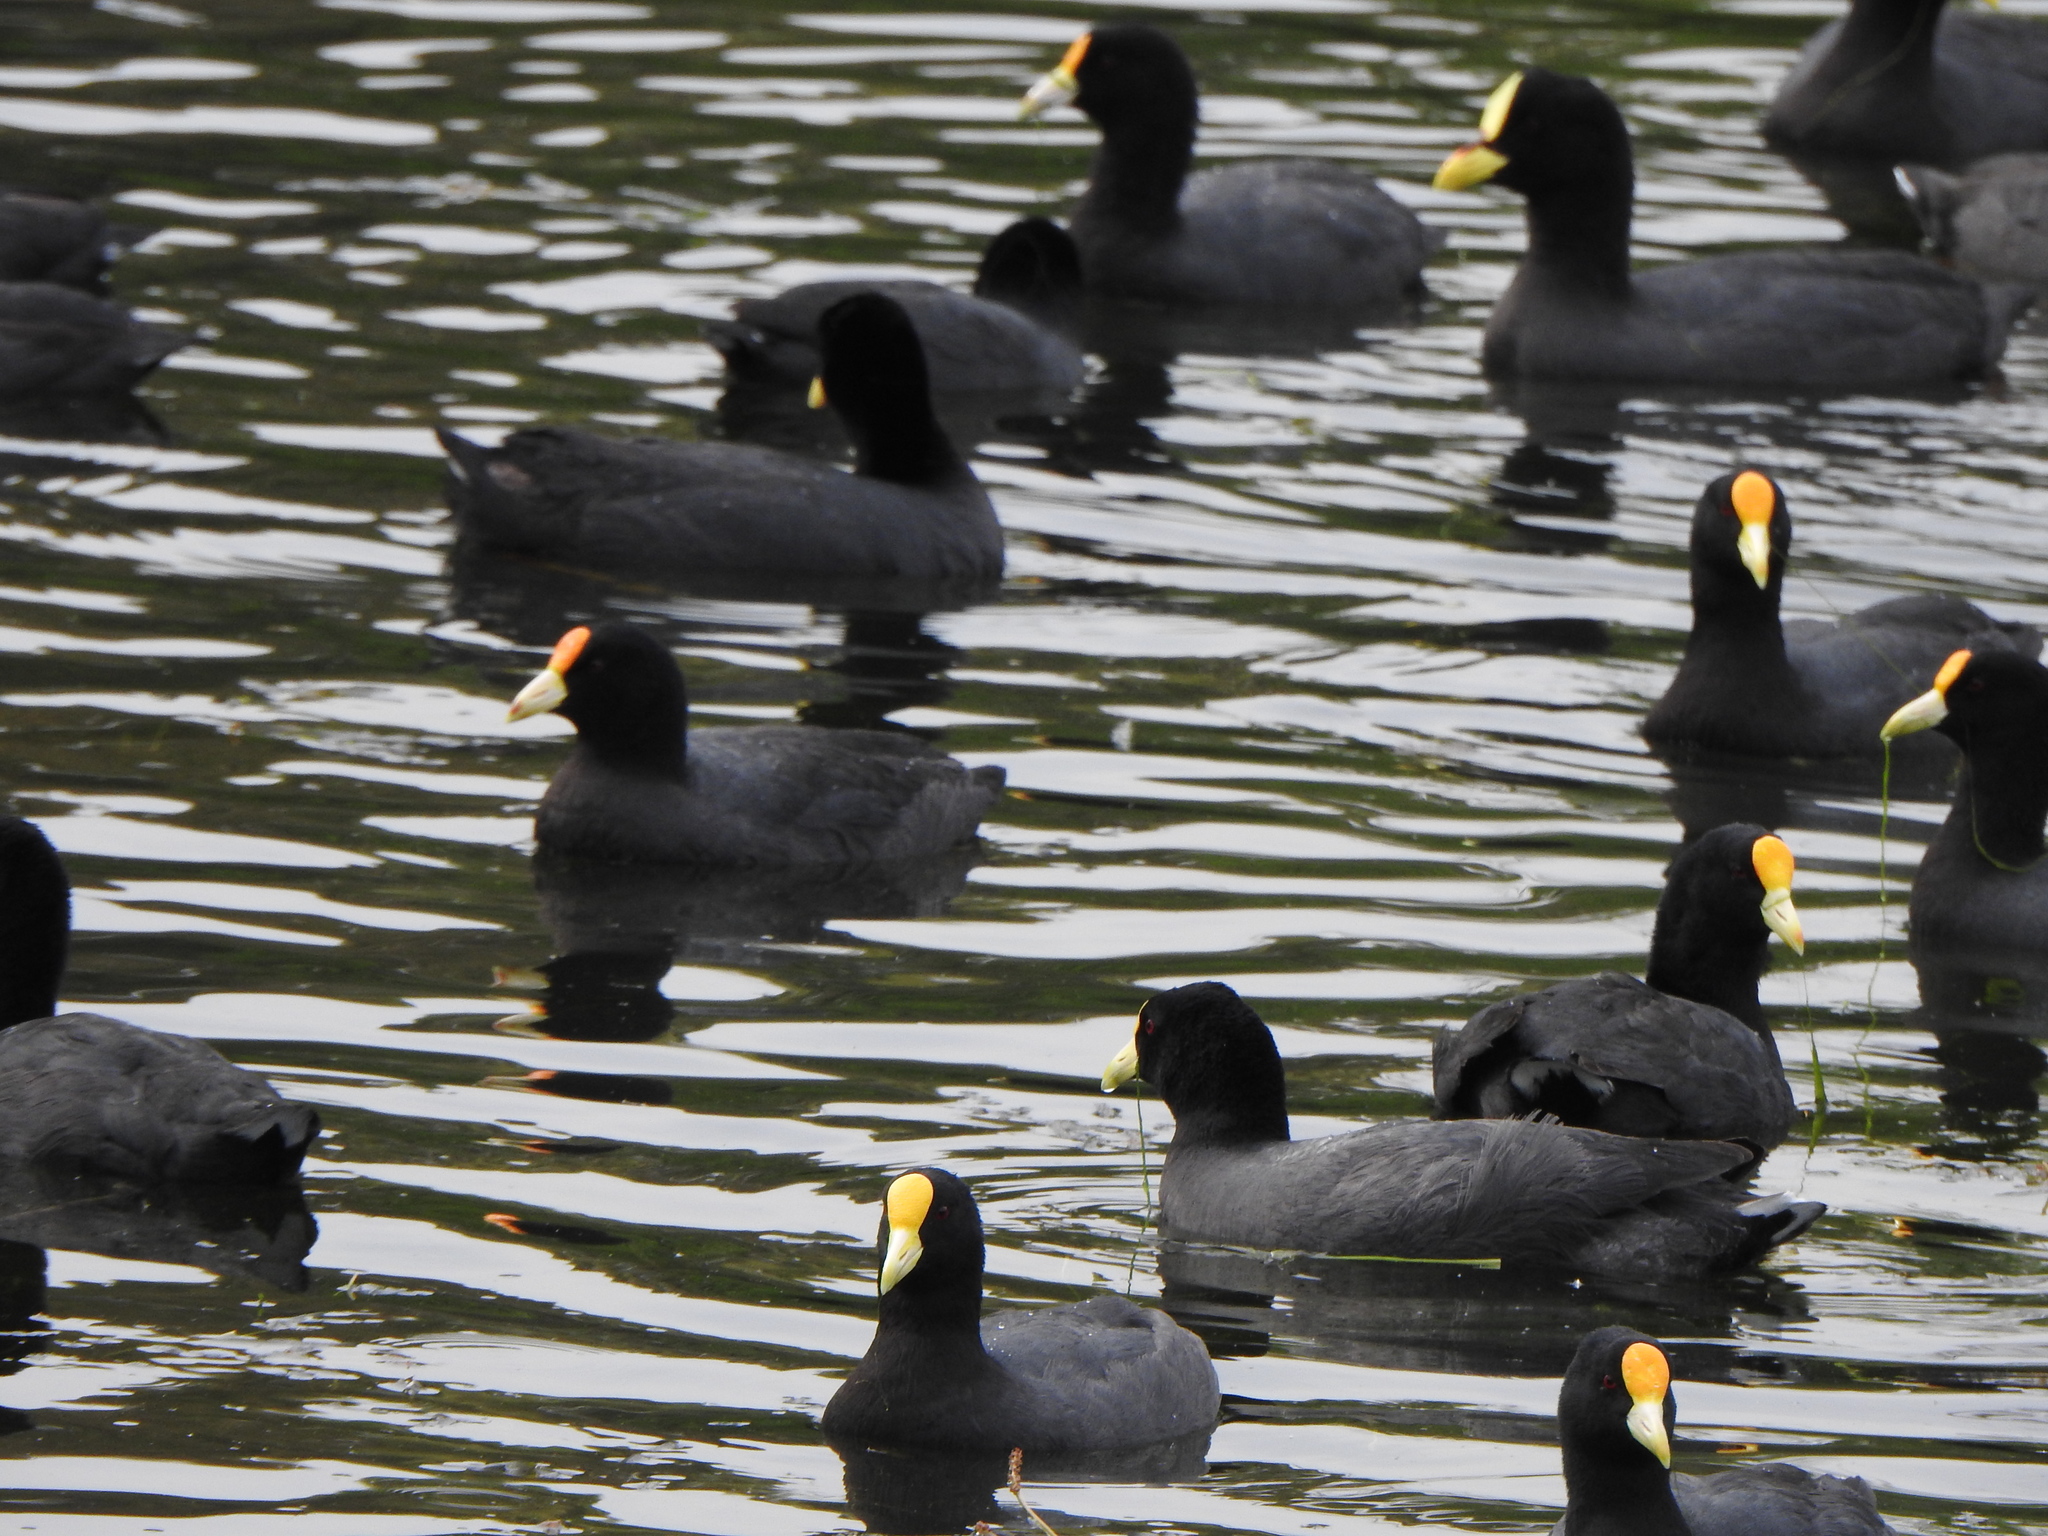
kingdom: Animalia
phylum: Chordata
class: Aves
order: Gruiformes
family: Rallidae
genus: Fulica
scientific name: Fulica leucoptera
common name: White-winged coot
